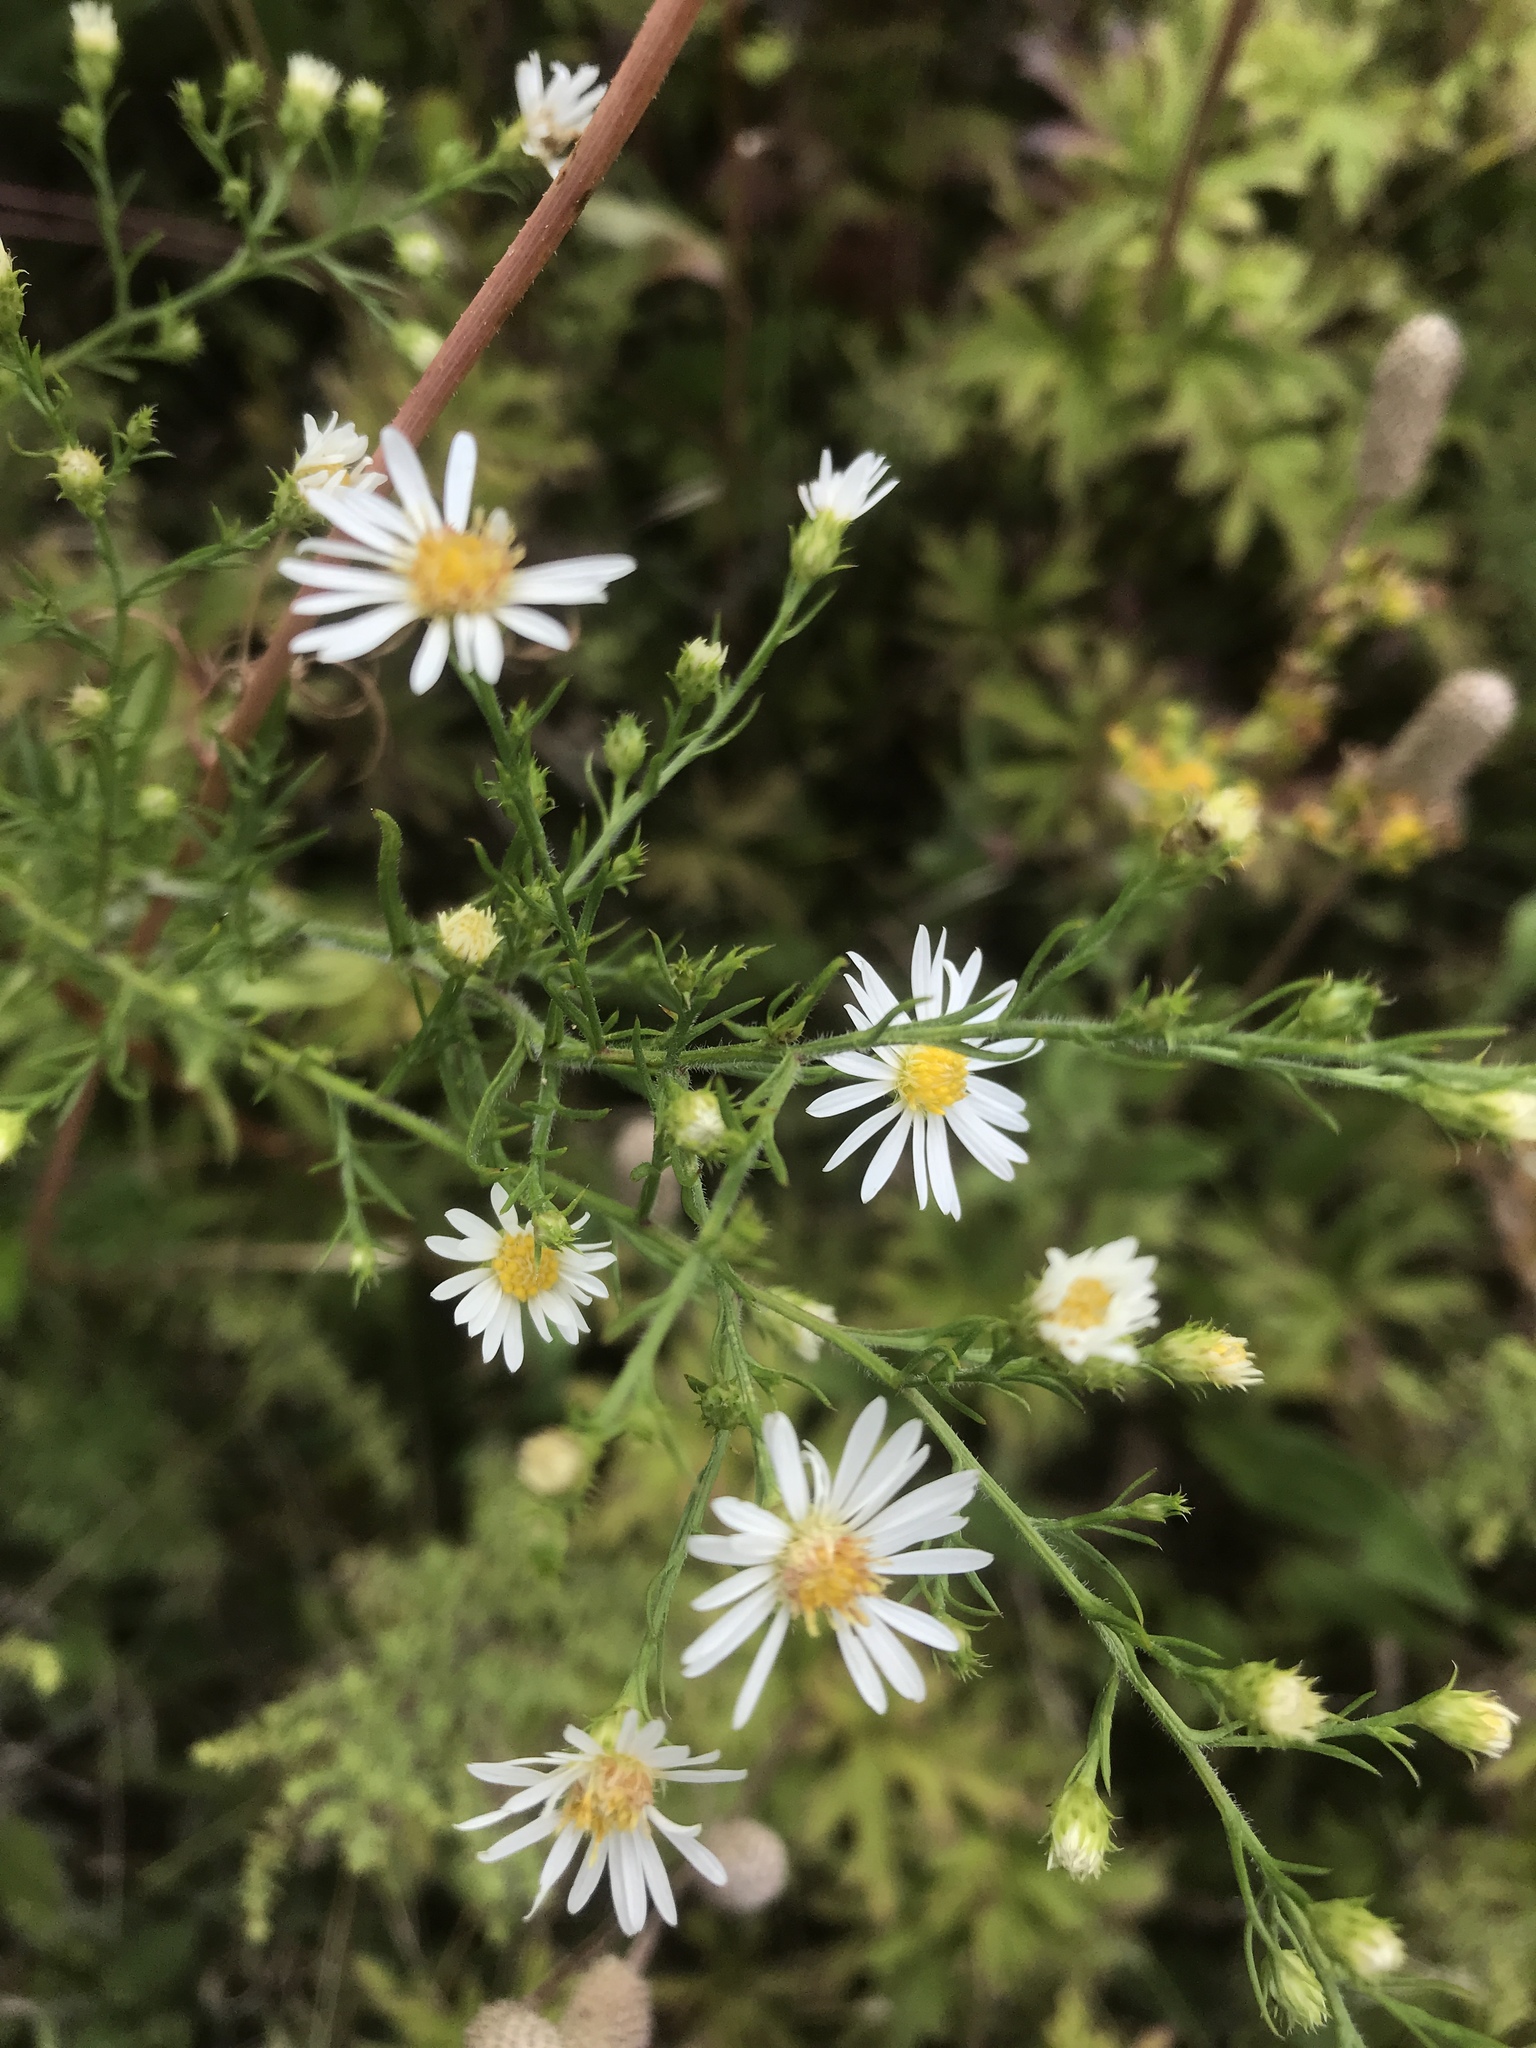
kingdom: Plantae
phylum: Tracheophyta
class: Magnoliopsida
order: Asterales
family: Asteraceae
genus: Symphyotrichum
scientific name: Symphyotrichum pilosum
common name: Awl aster
